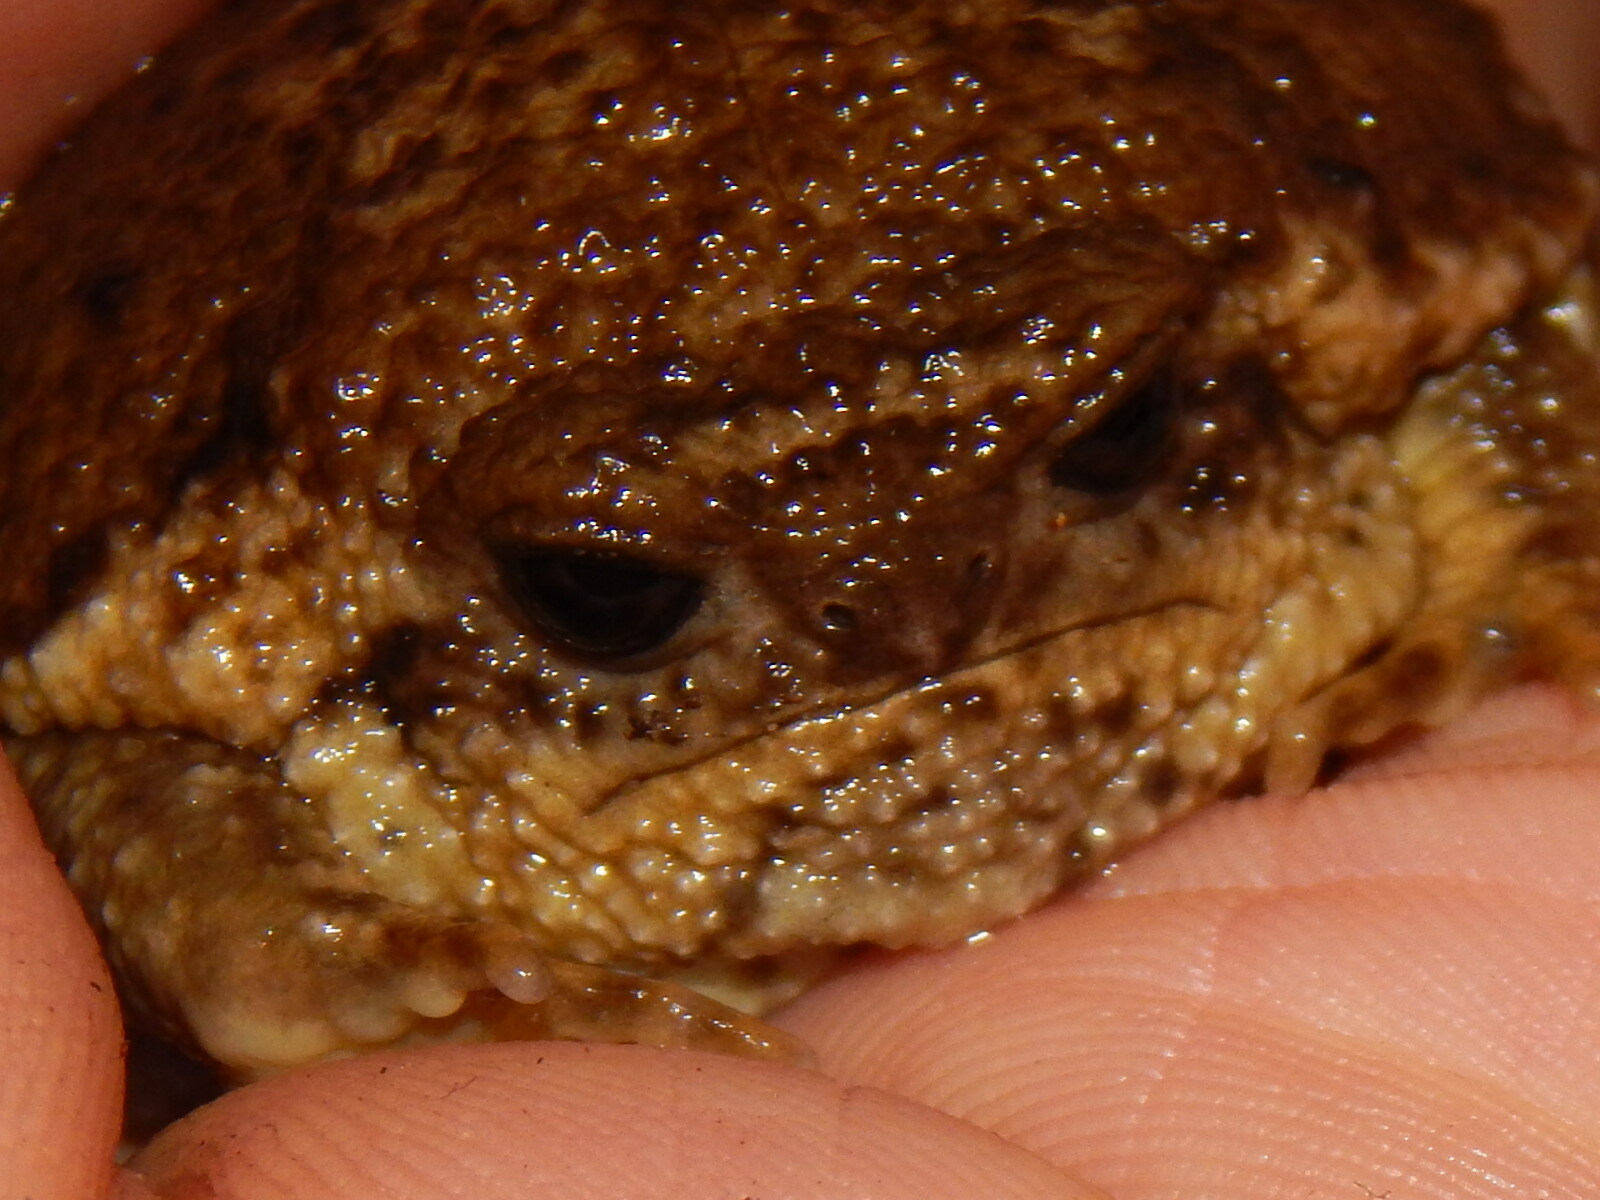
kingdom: Animalia
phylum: Chordata
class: Amphibia
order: Anura
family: Brevicipitidae
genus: Breviceps
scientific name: Breviceps gibbosus
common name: Cape rain frog
